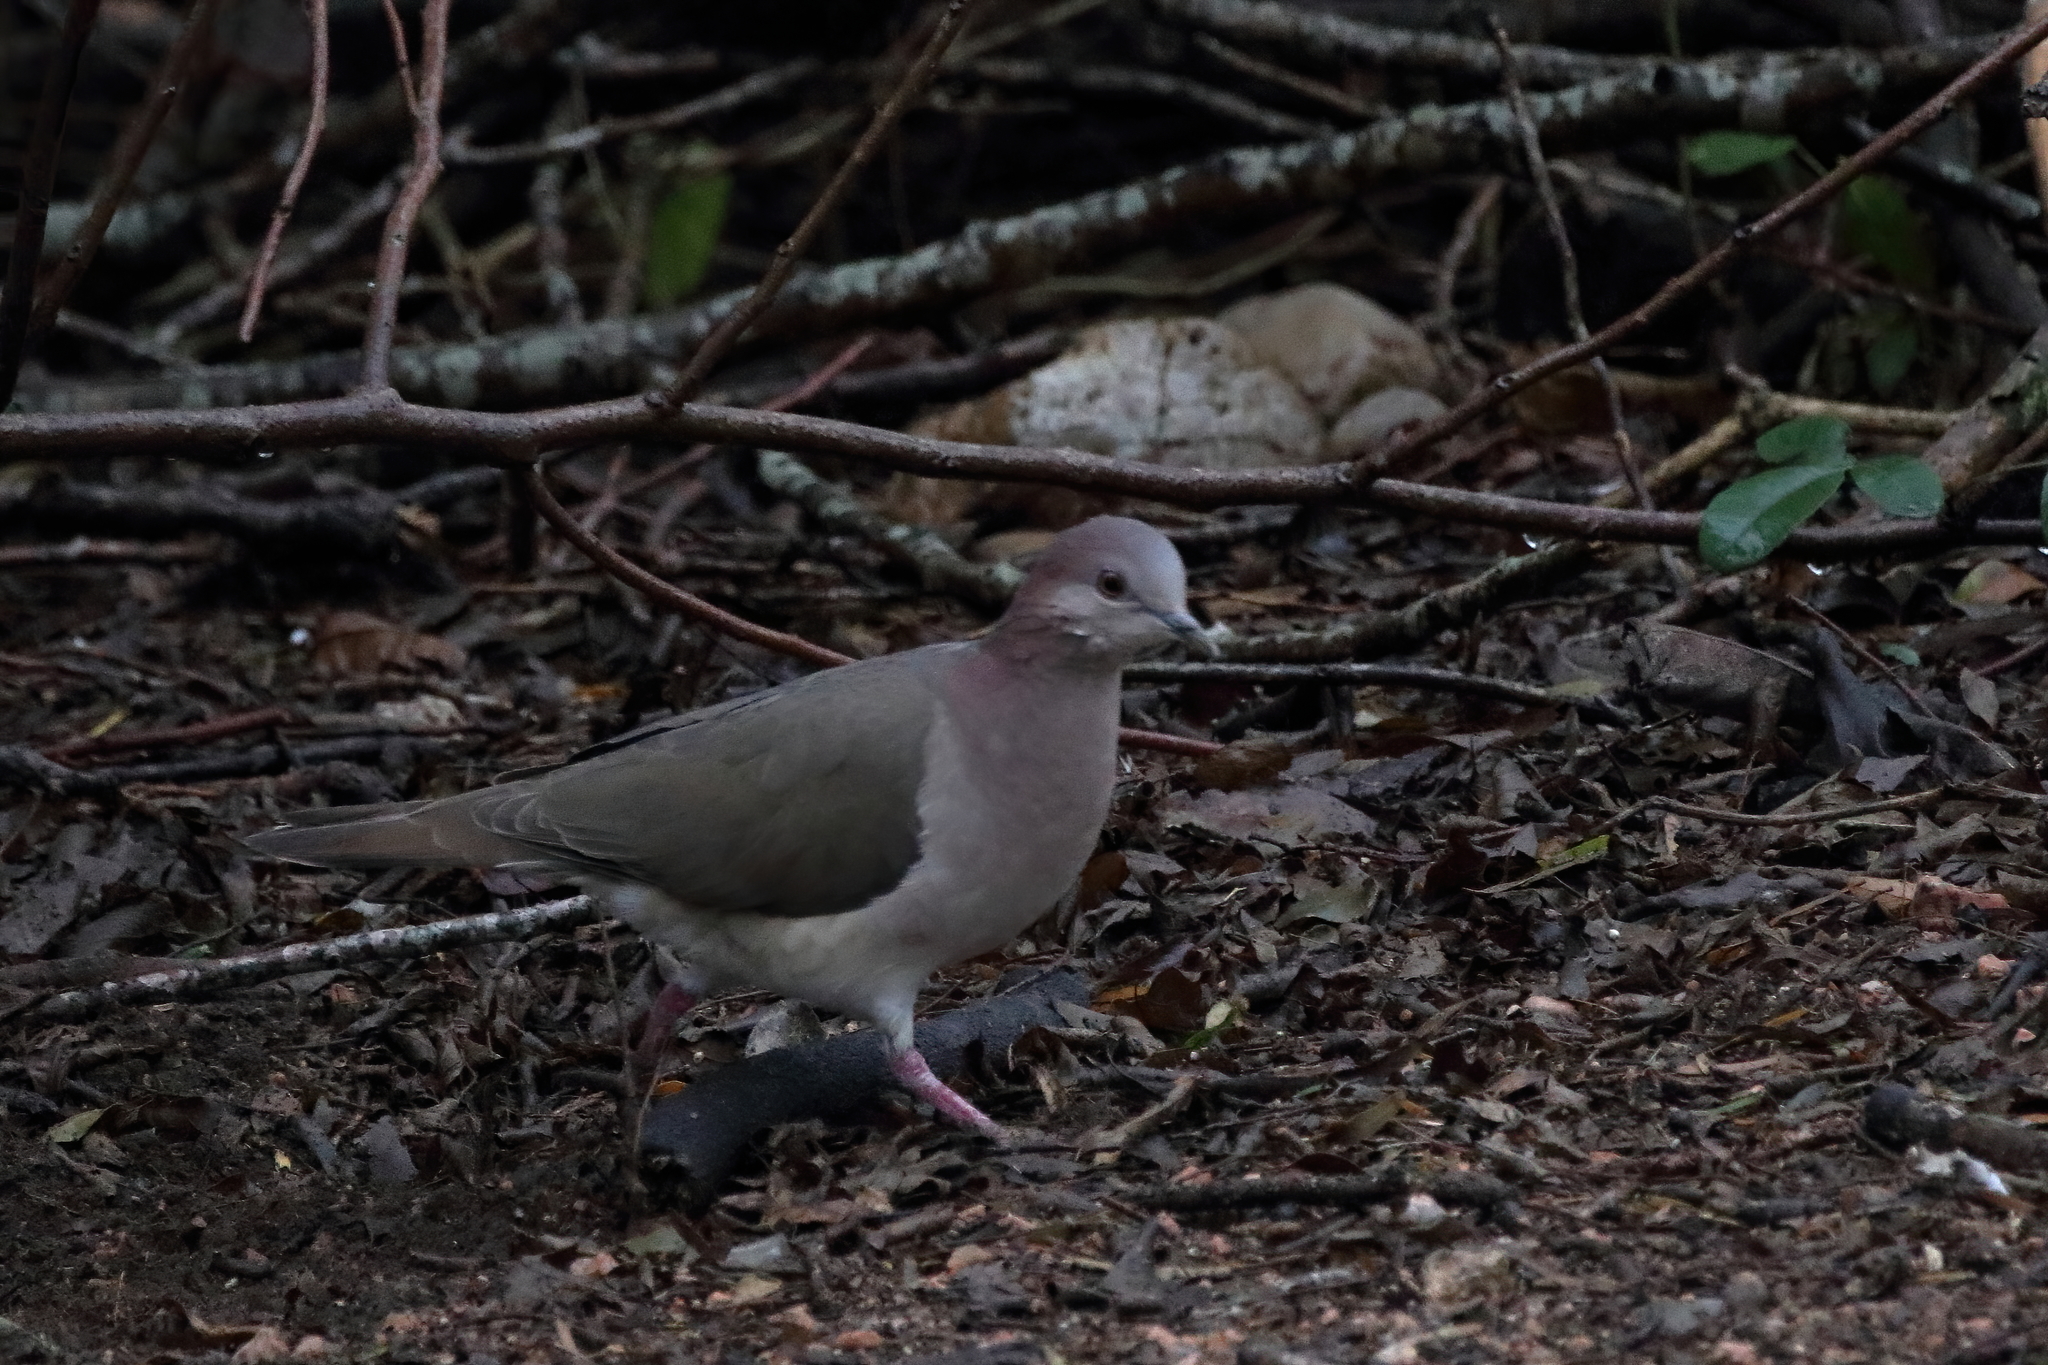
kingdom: Animalia
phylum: Chordata
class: Aves
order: Columbiformes
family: Columbidae
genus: Leptotila
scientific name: Leptotila verreauxi
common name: White-tipped dove
